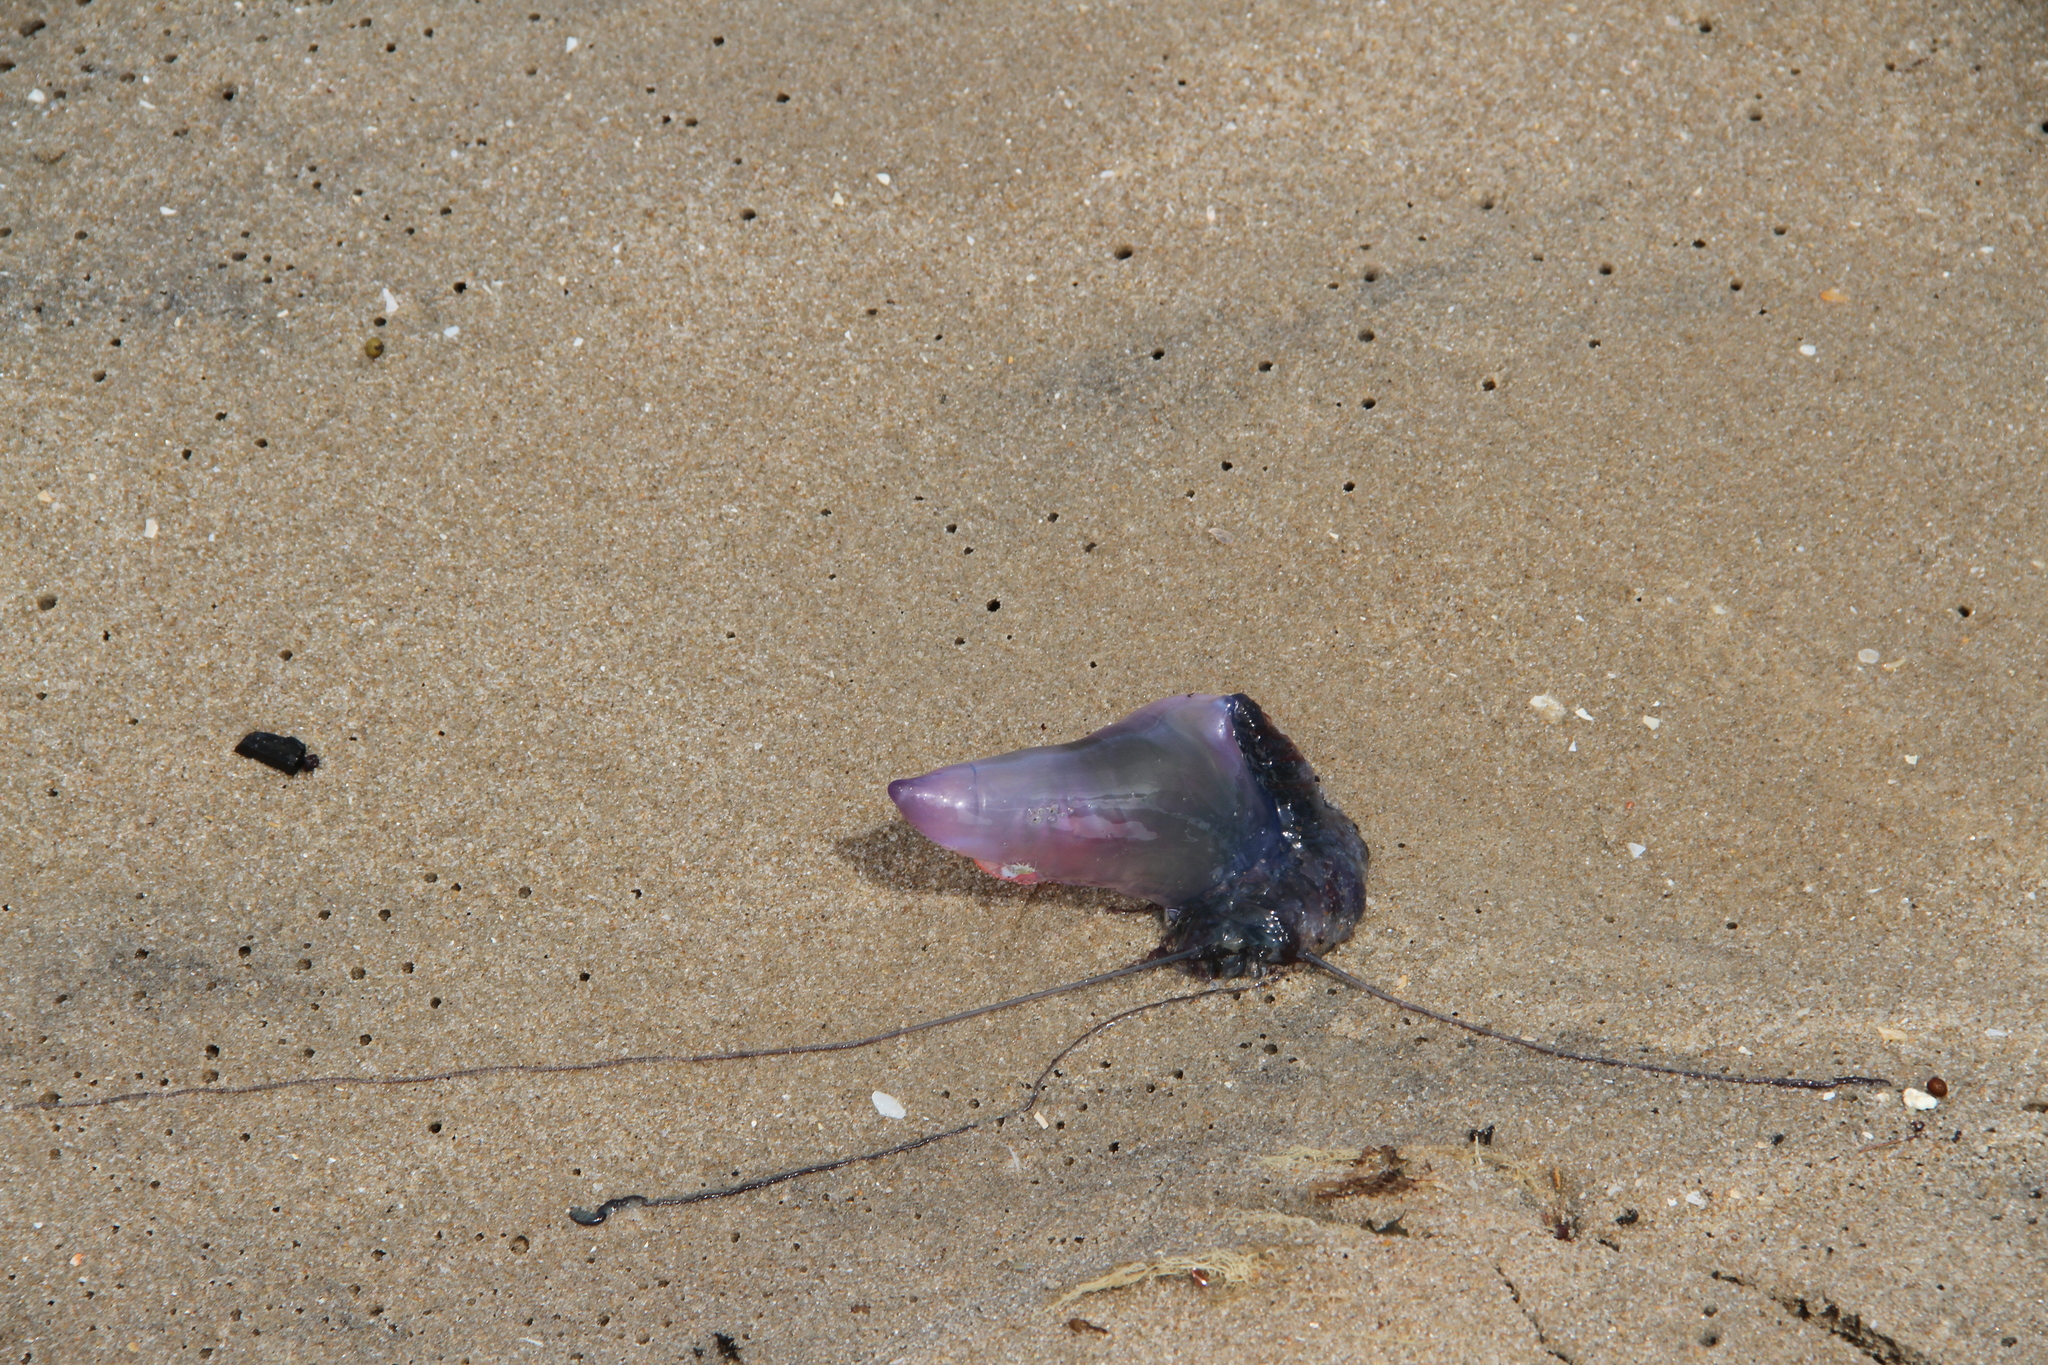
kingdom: Animalia
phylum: Cnidaria
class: Hydrozoa
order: Siphonophorae
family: Physaliidae
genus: Physalia
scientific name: Physalia physalis
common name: Portuguese man-of-war
